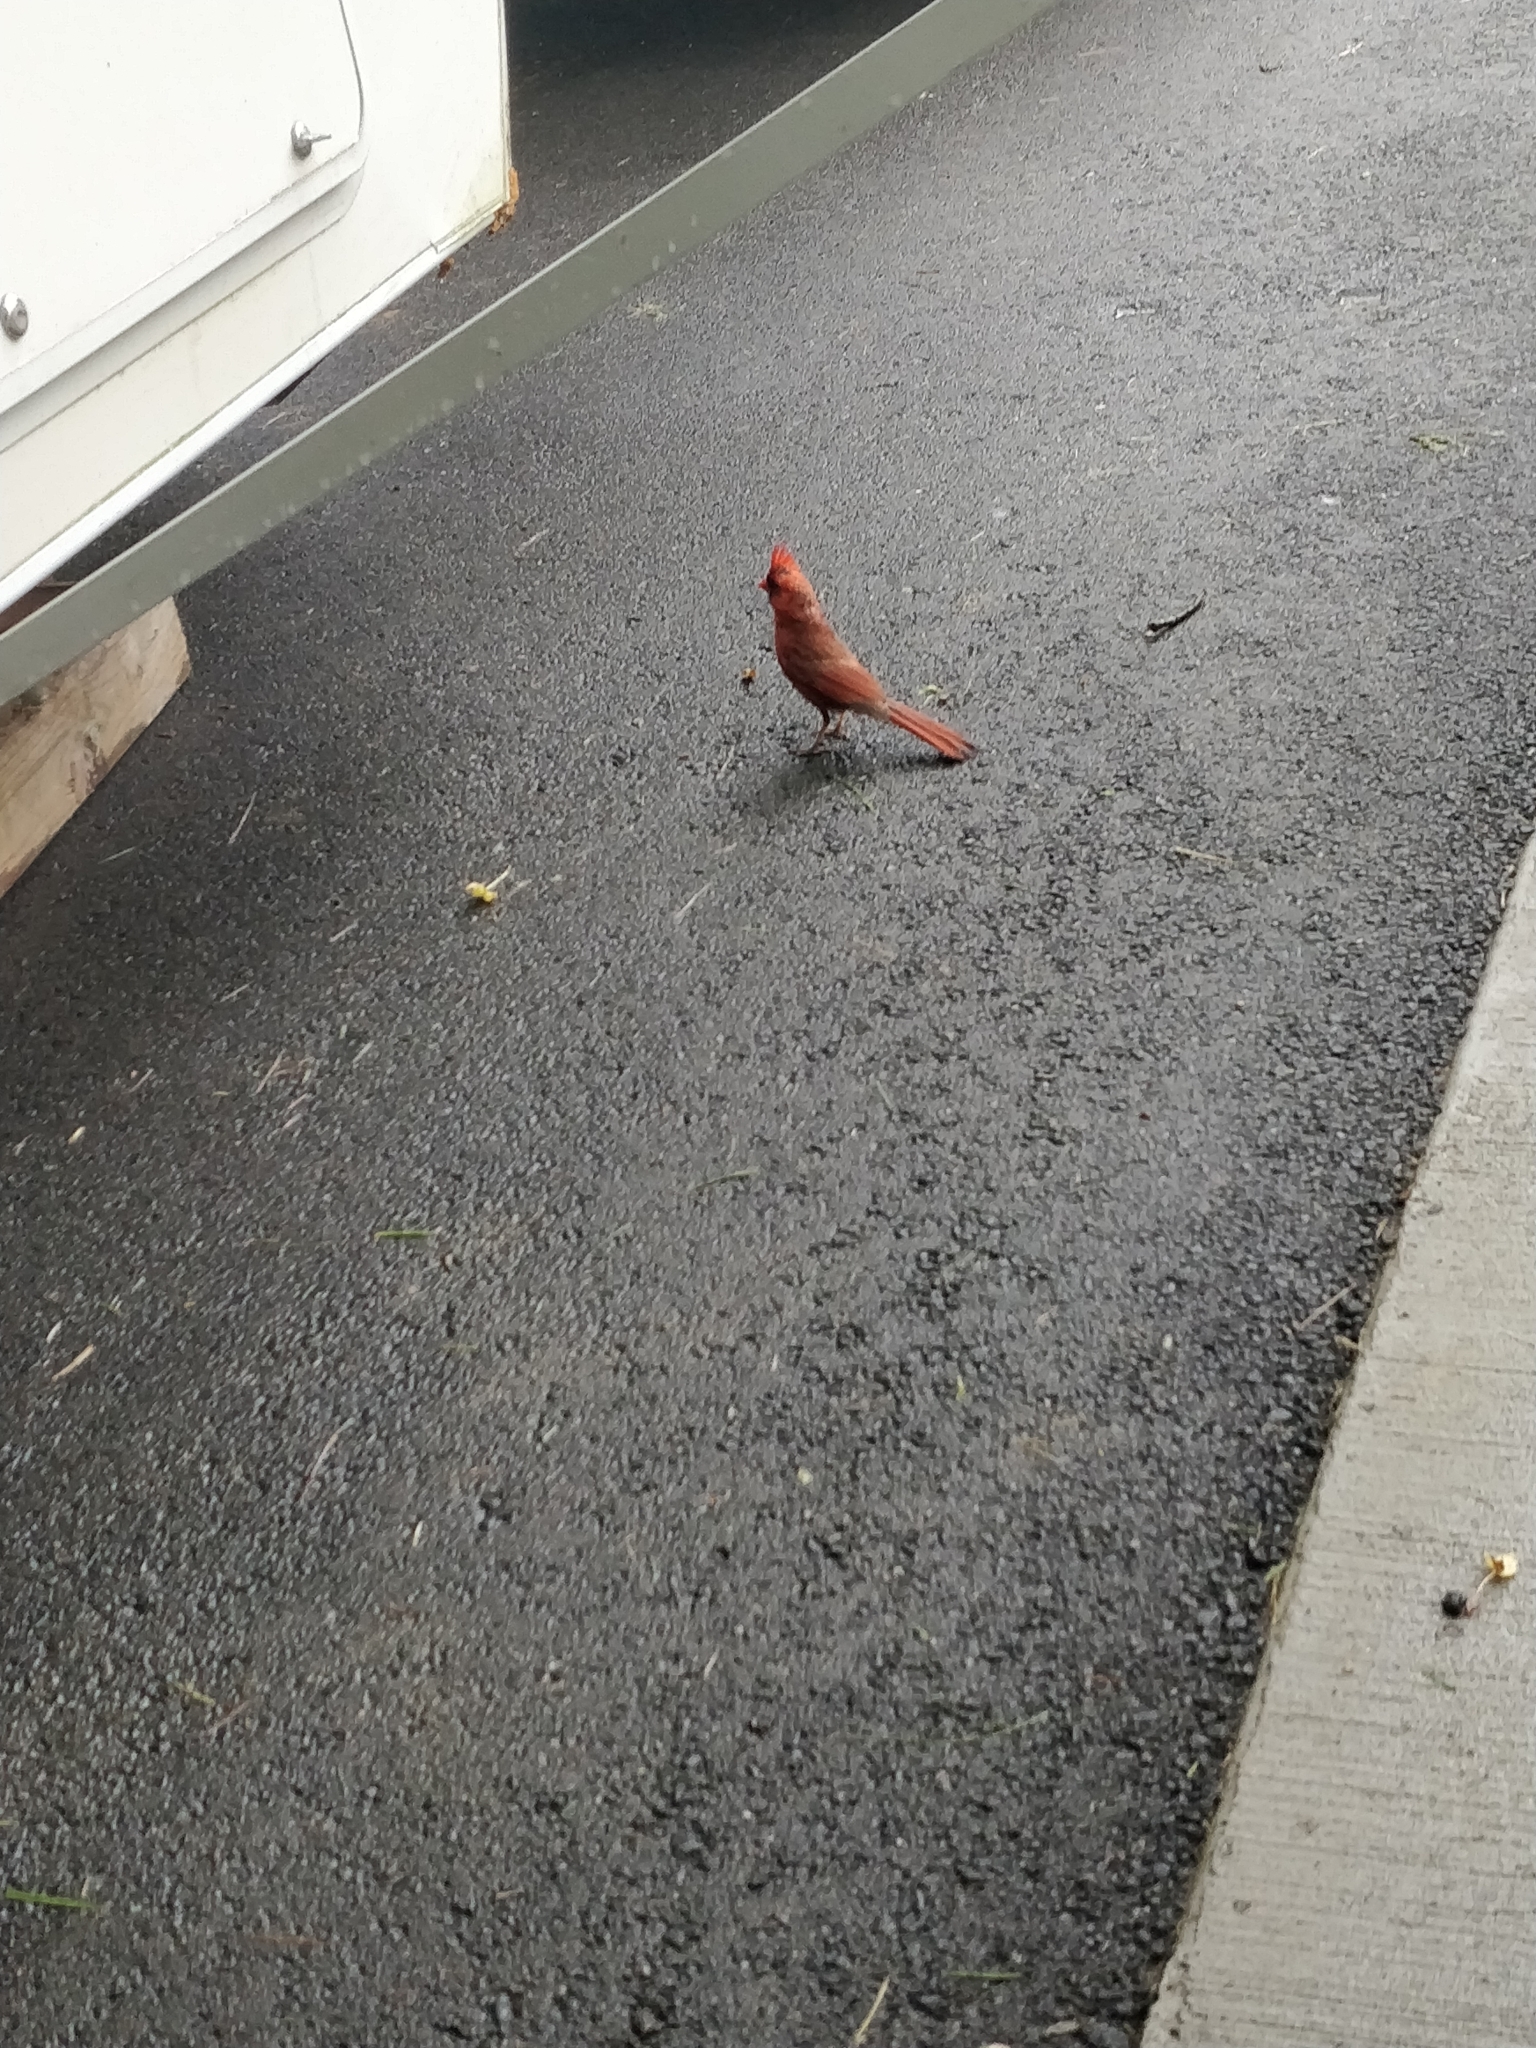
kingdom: Animalia
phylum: Chordata
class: Aves
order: Passeriformes
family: Cardinalidae
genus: Cardinalis
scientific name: Cardinalis cardinalis
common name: Northern cardinal
